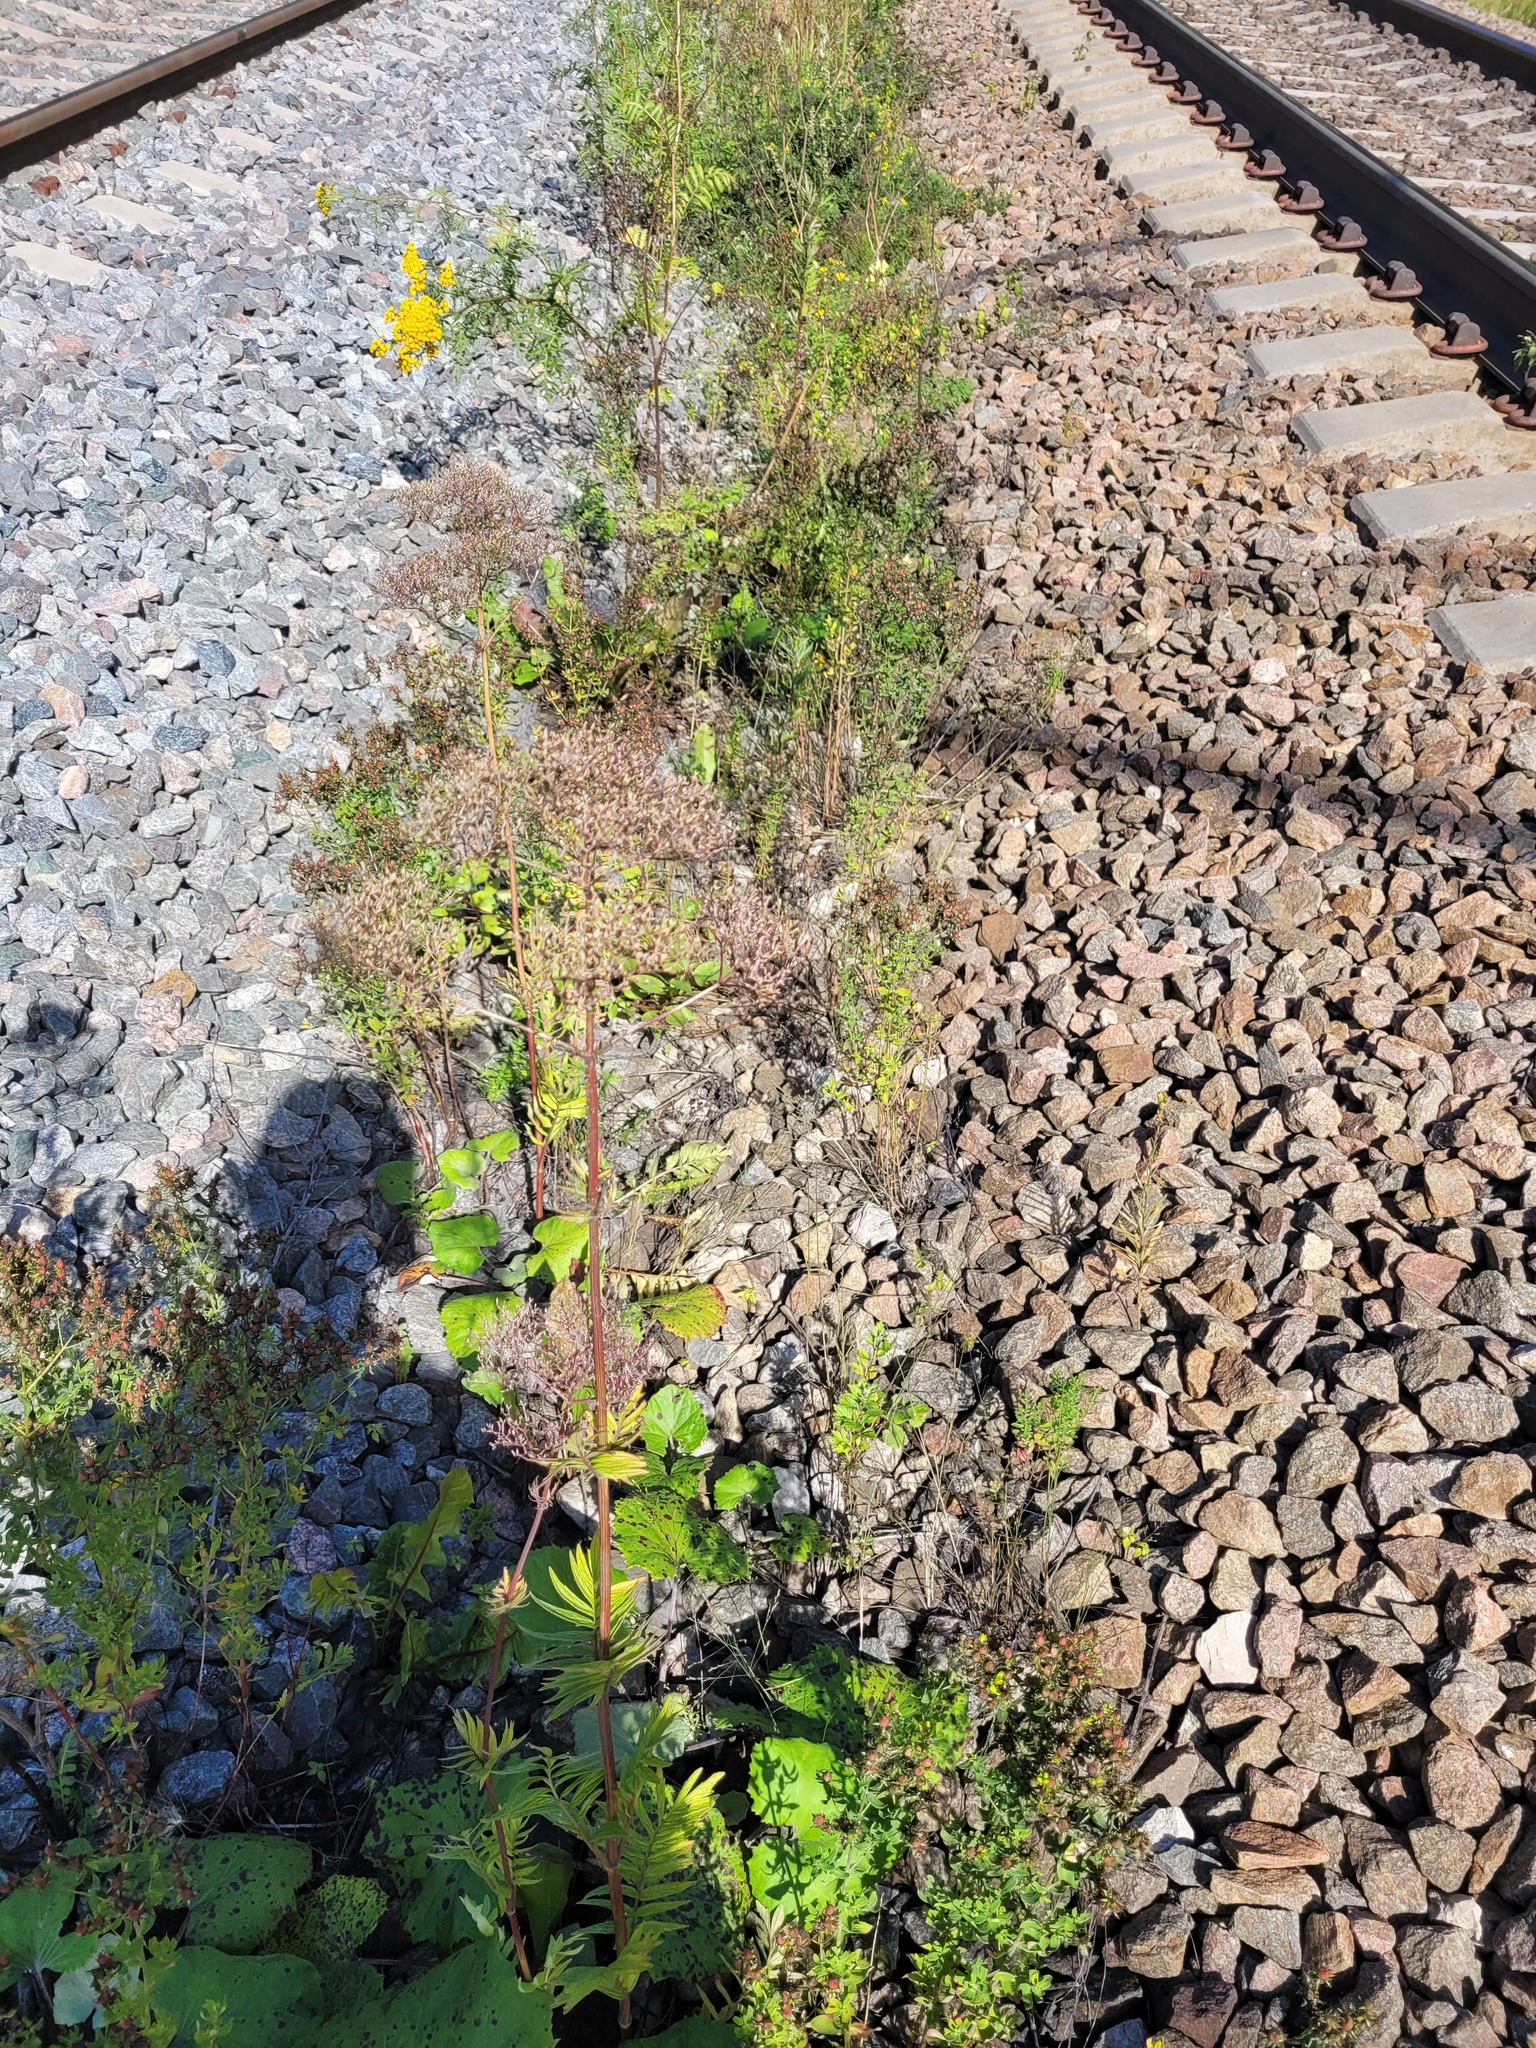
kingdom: Plantae
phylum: Tracheophyta
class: Magnoliopsida
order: Dipsacales
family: Caprifoliaceae
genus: Valeriana
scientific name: Valeriana officinalis
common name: Common valerian
